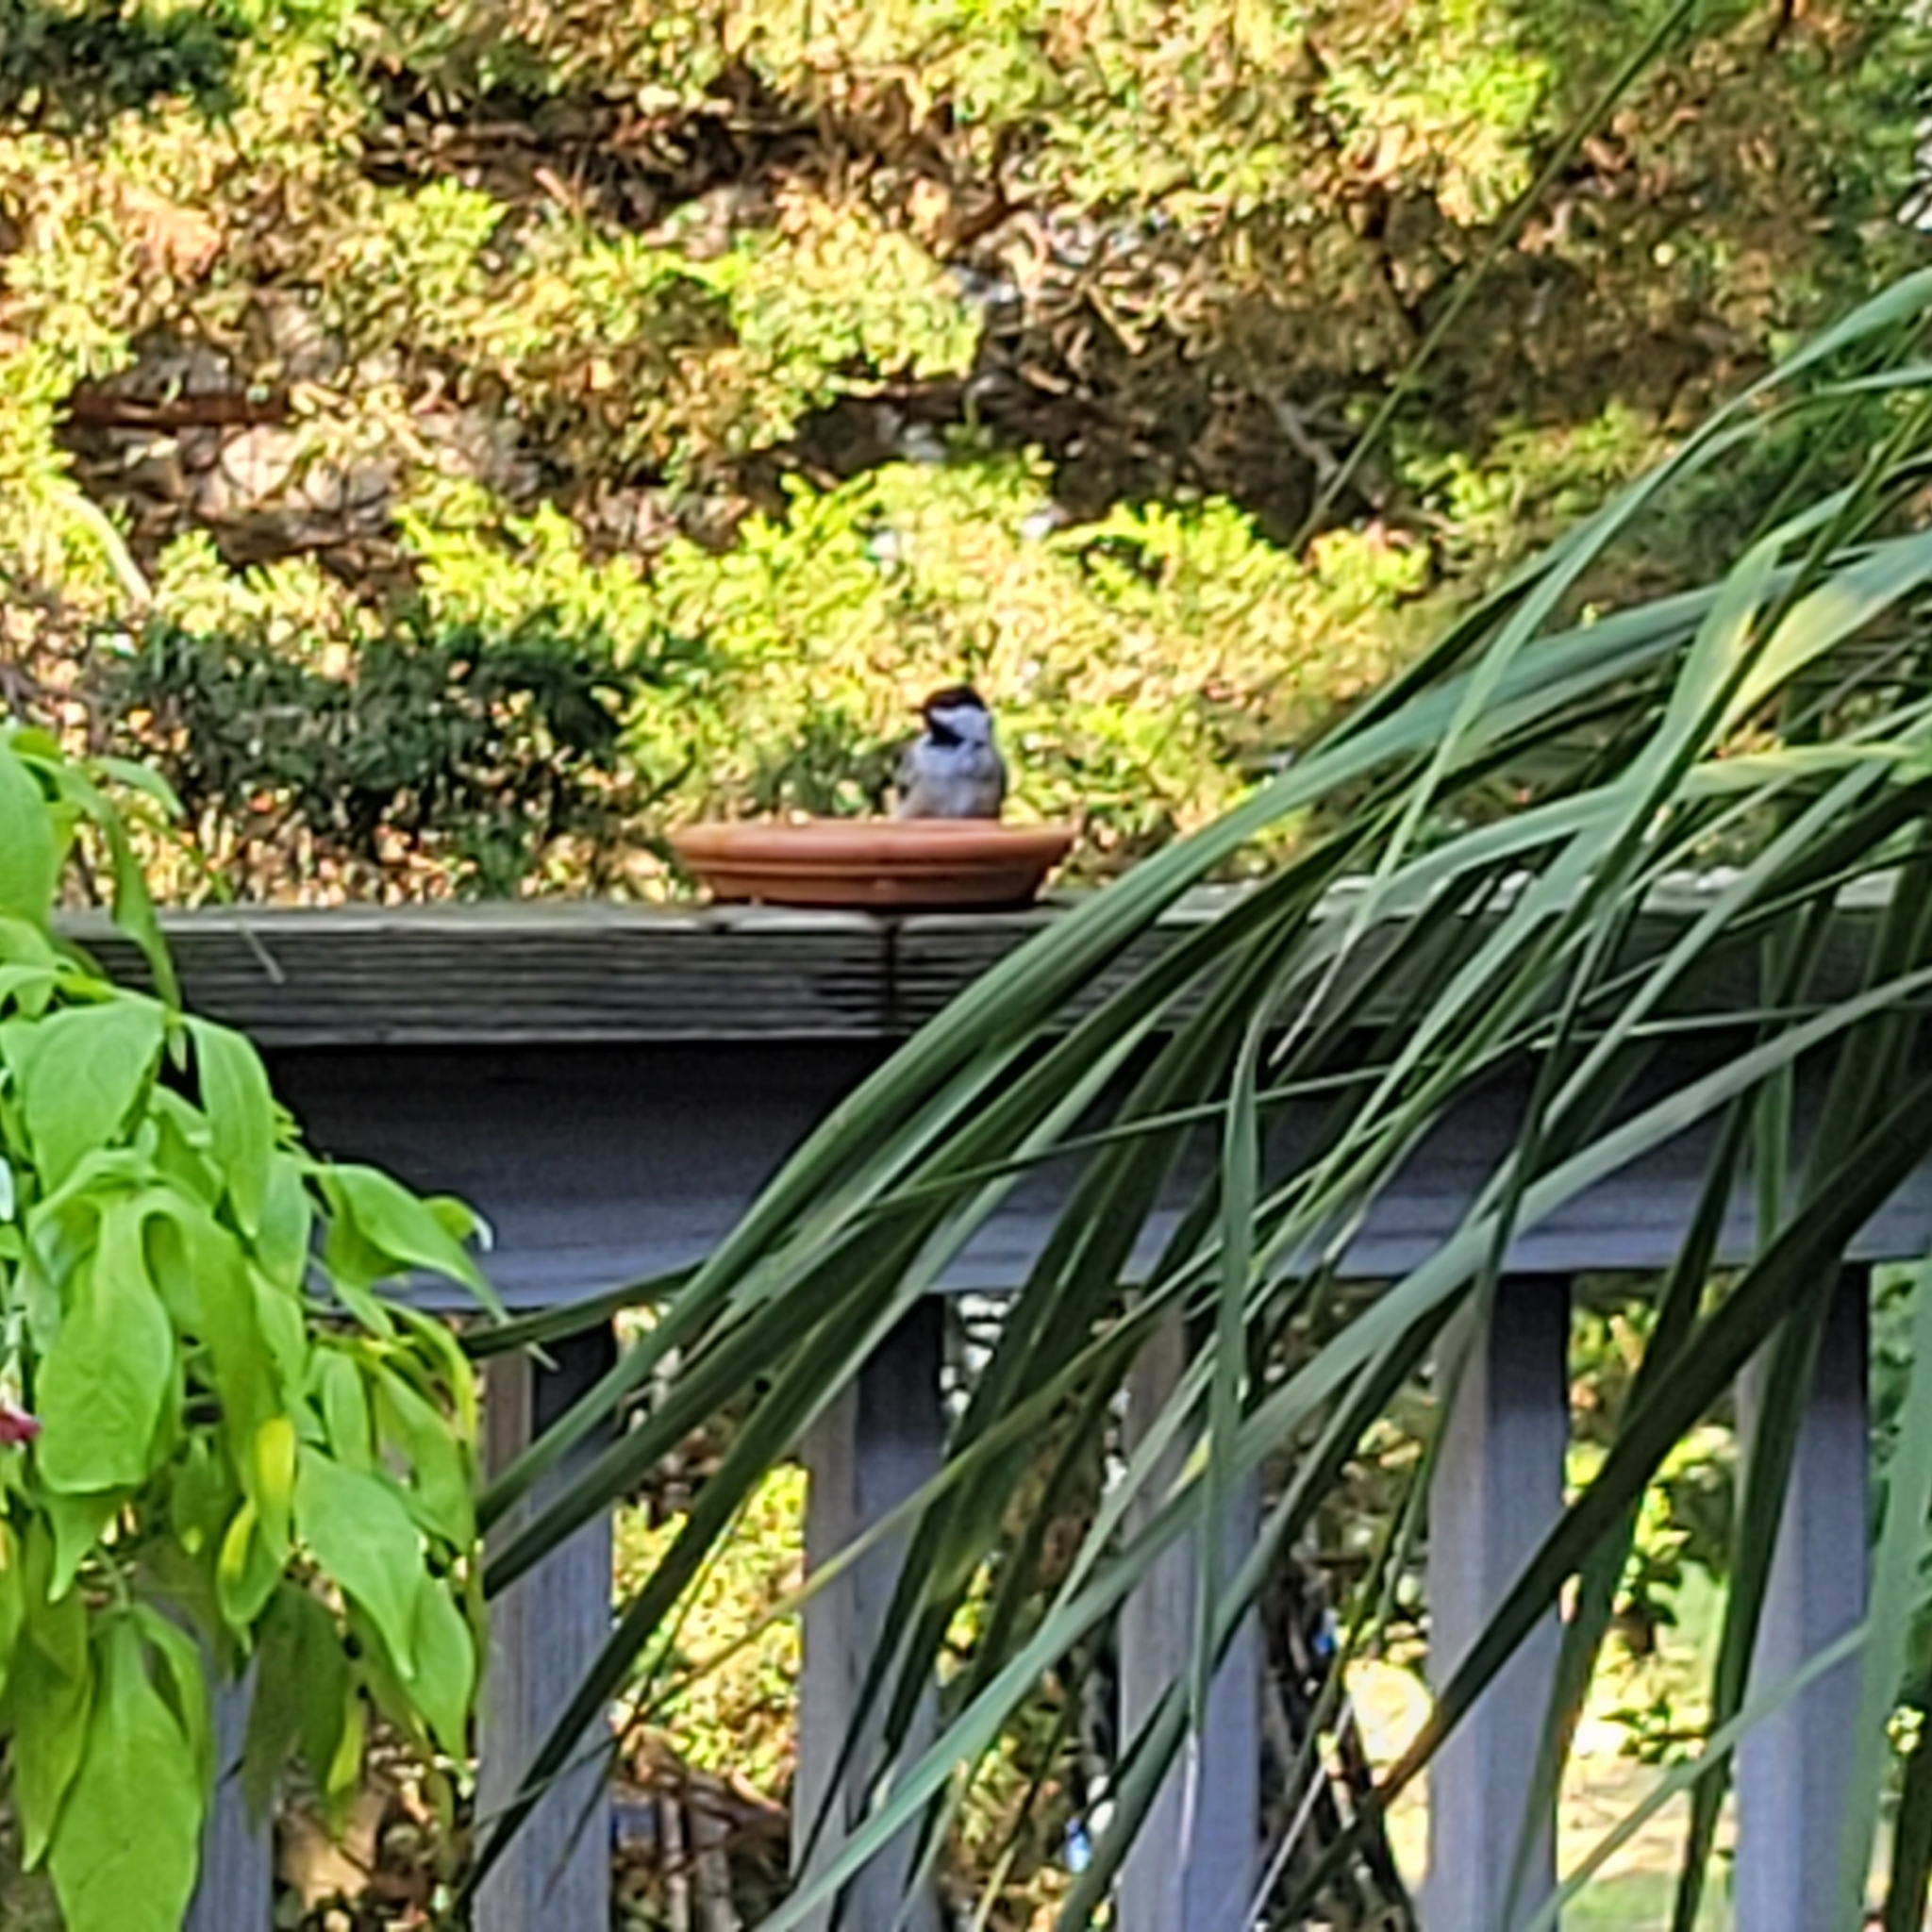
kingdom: Animalia
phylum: Chordata
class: Aves
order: Passeriformes
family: Paridae
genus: Poecile
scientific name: Poecile atricapillus
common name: Black-capped chickadee
